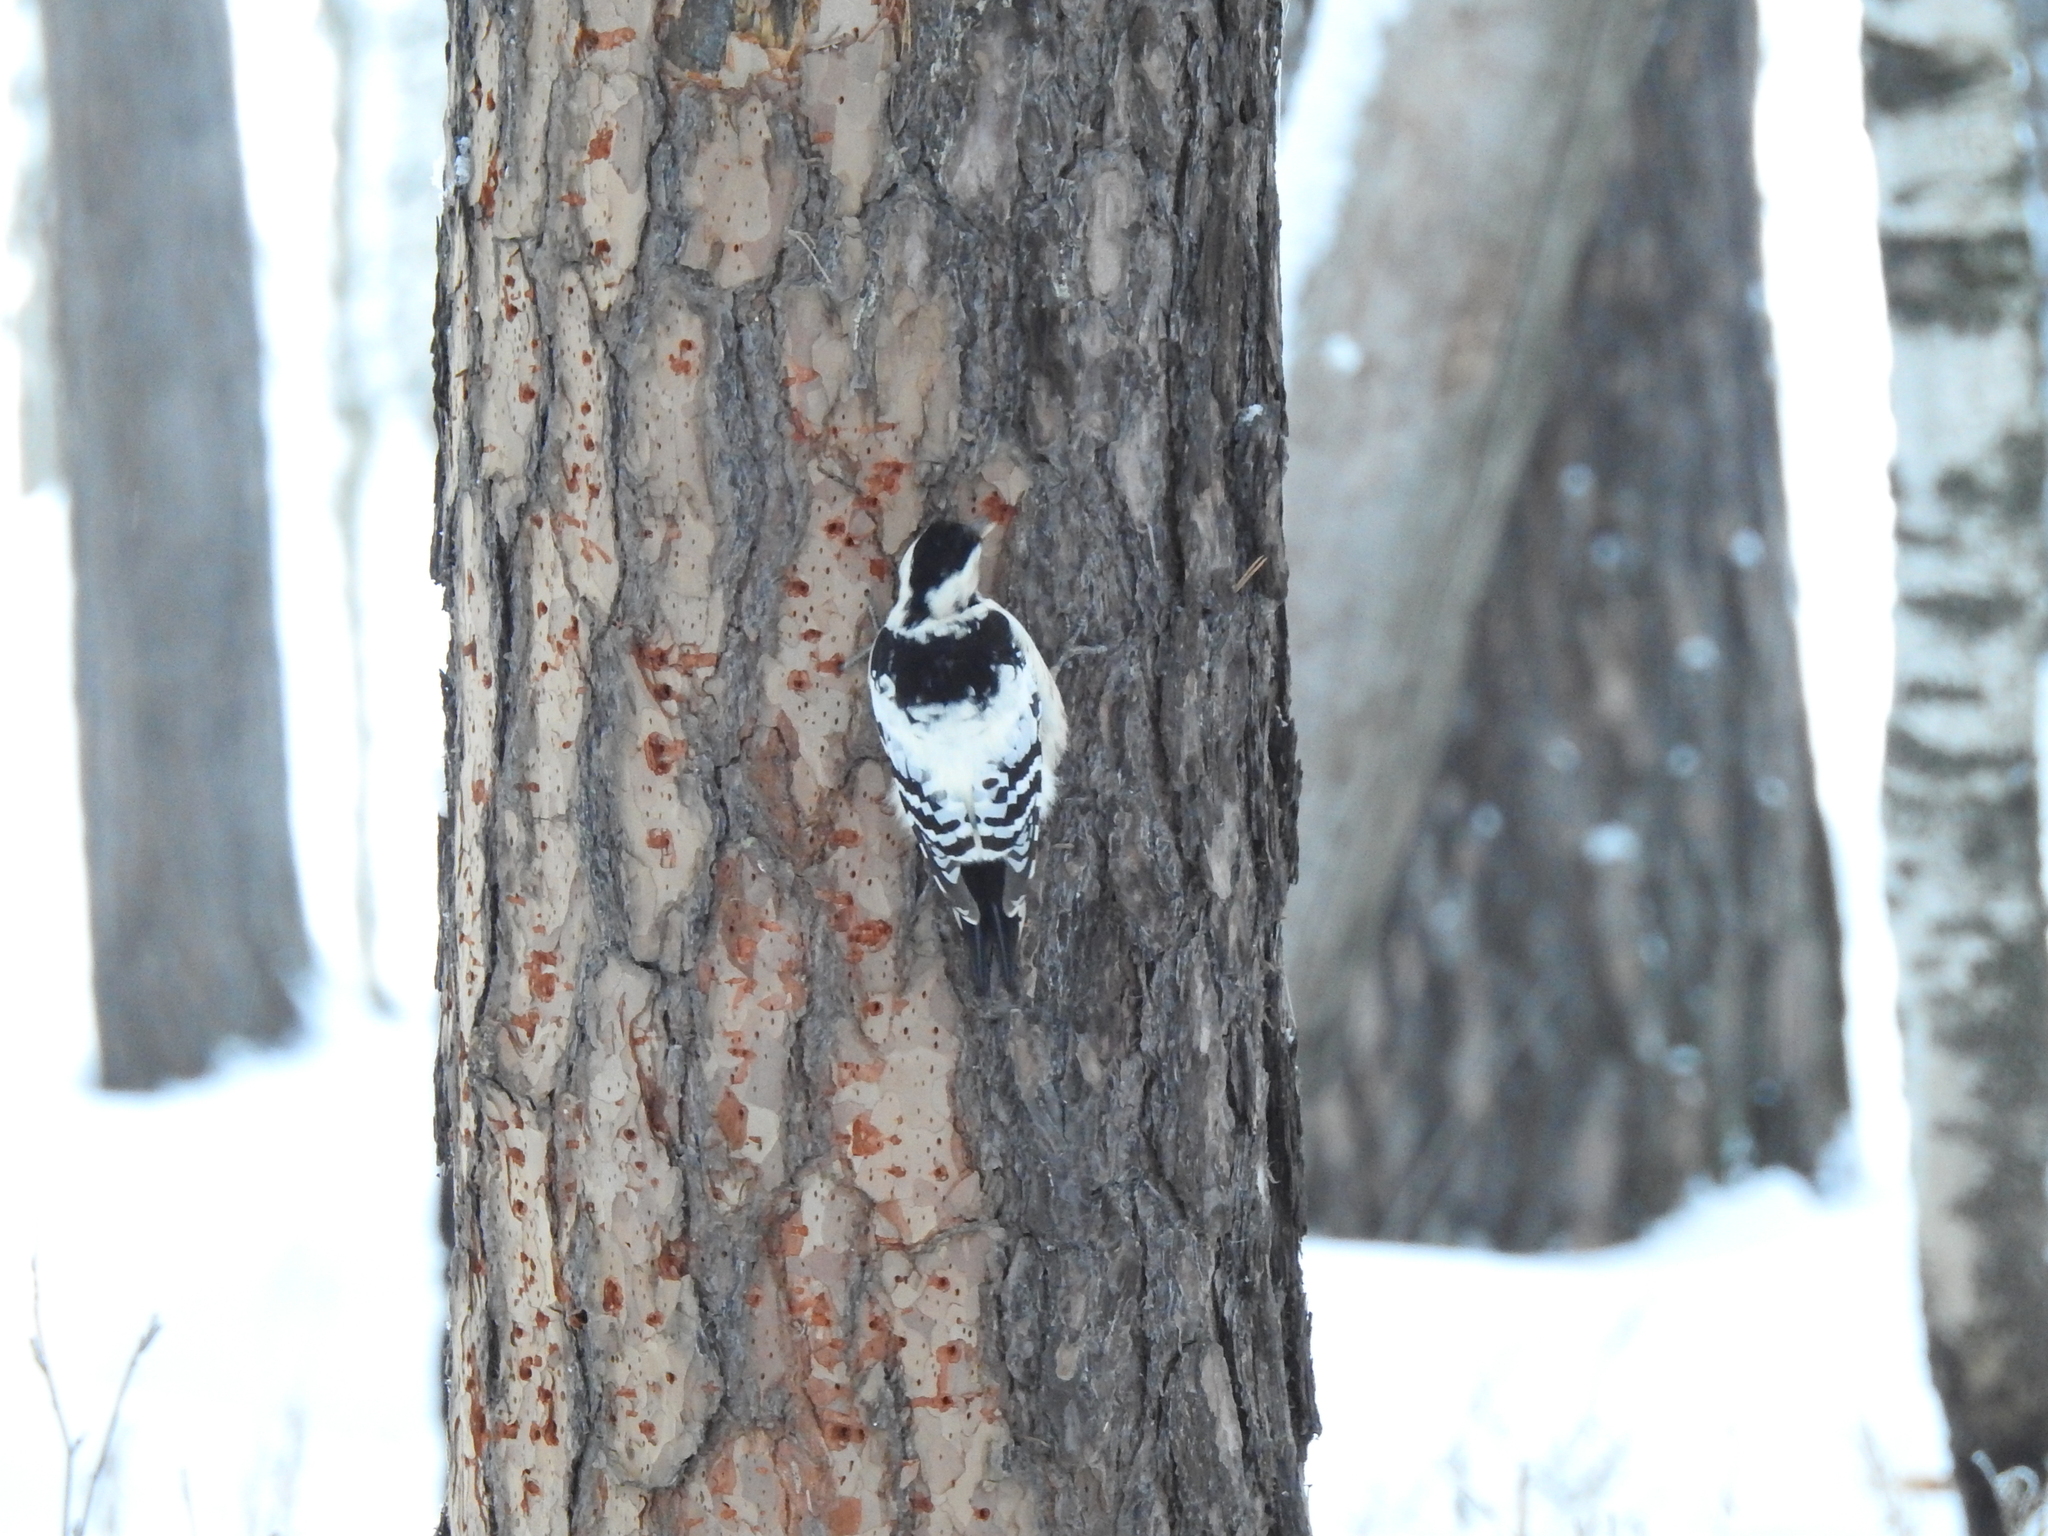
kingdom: Animalia
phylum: Chordata
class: Aves
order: Piciformes
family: Picidae
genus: Dendrocopos
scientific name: Dendrocopos leucotos
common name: White-backed woodpecker
